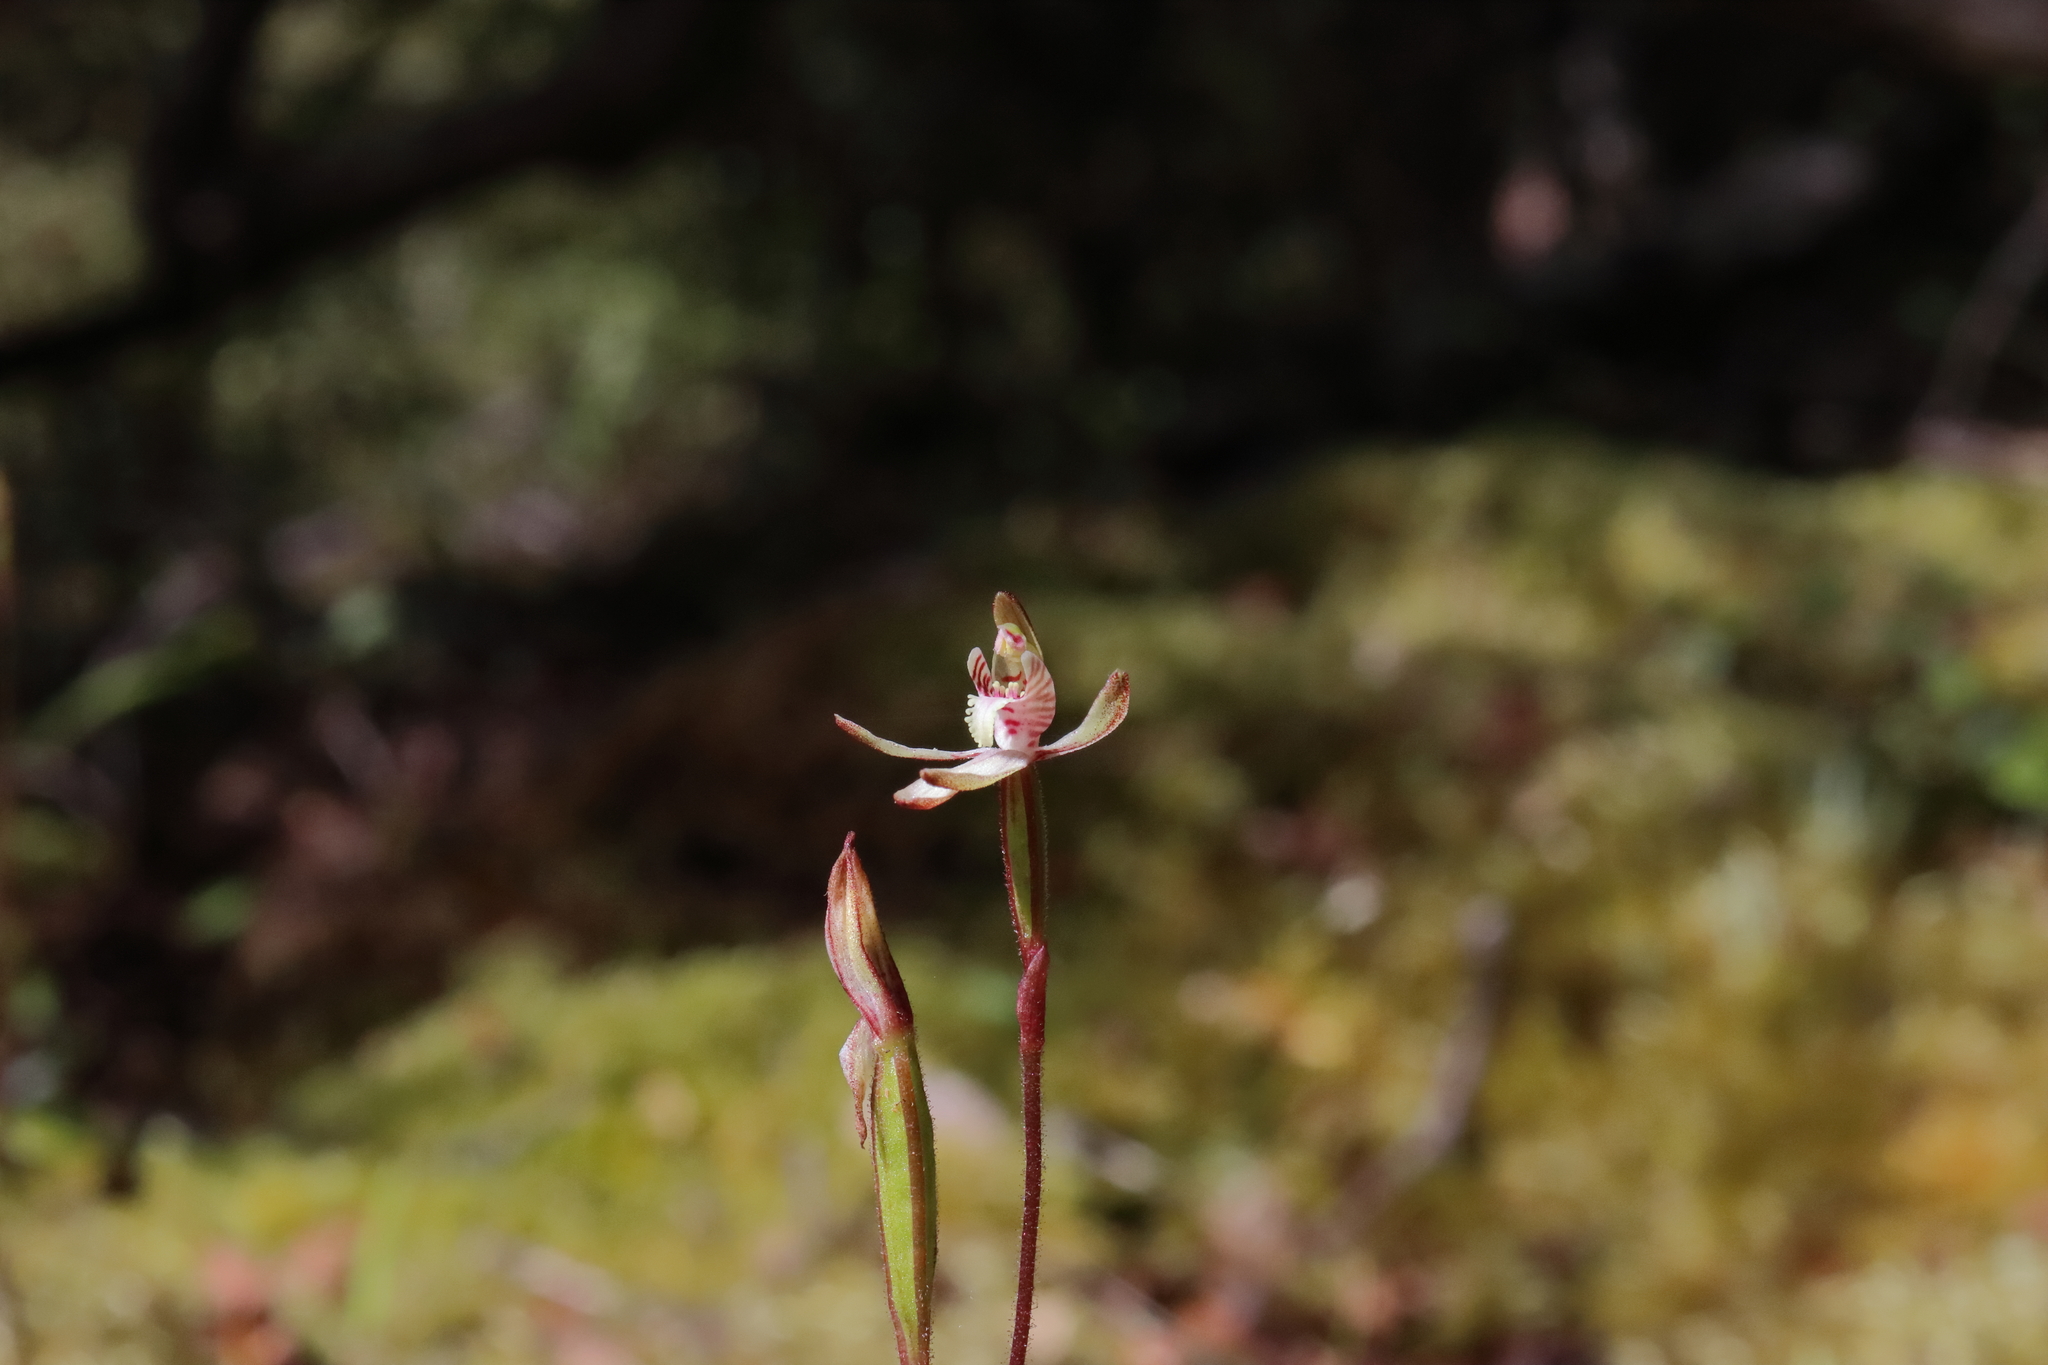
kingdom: Plantae
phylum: Tracheophyta
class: Liliopsida
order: Asparagales
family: Orchidaceae
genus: Caladenia
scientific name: Caladenia chlorostyla
